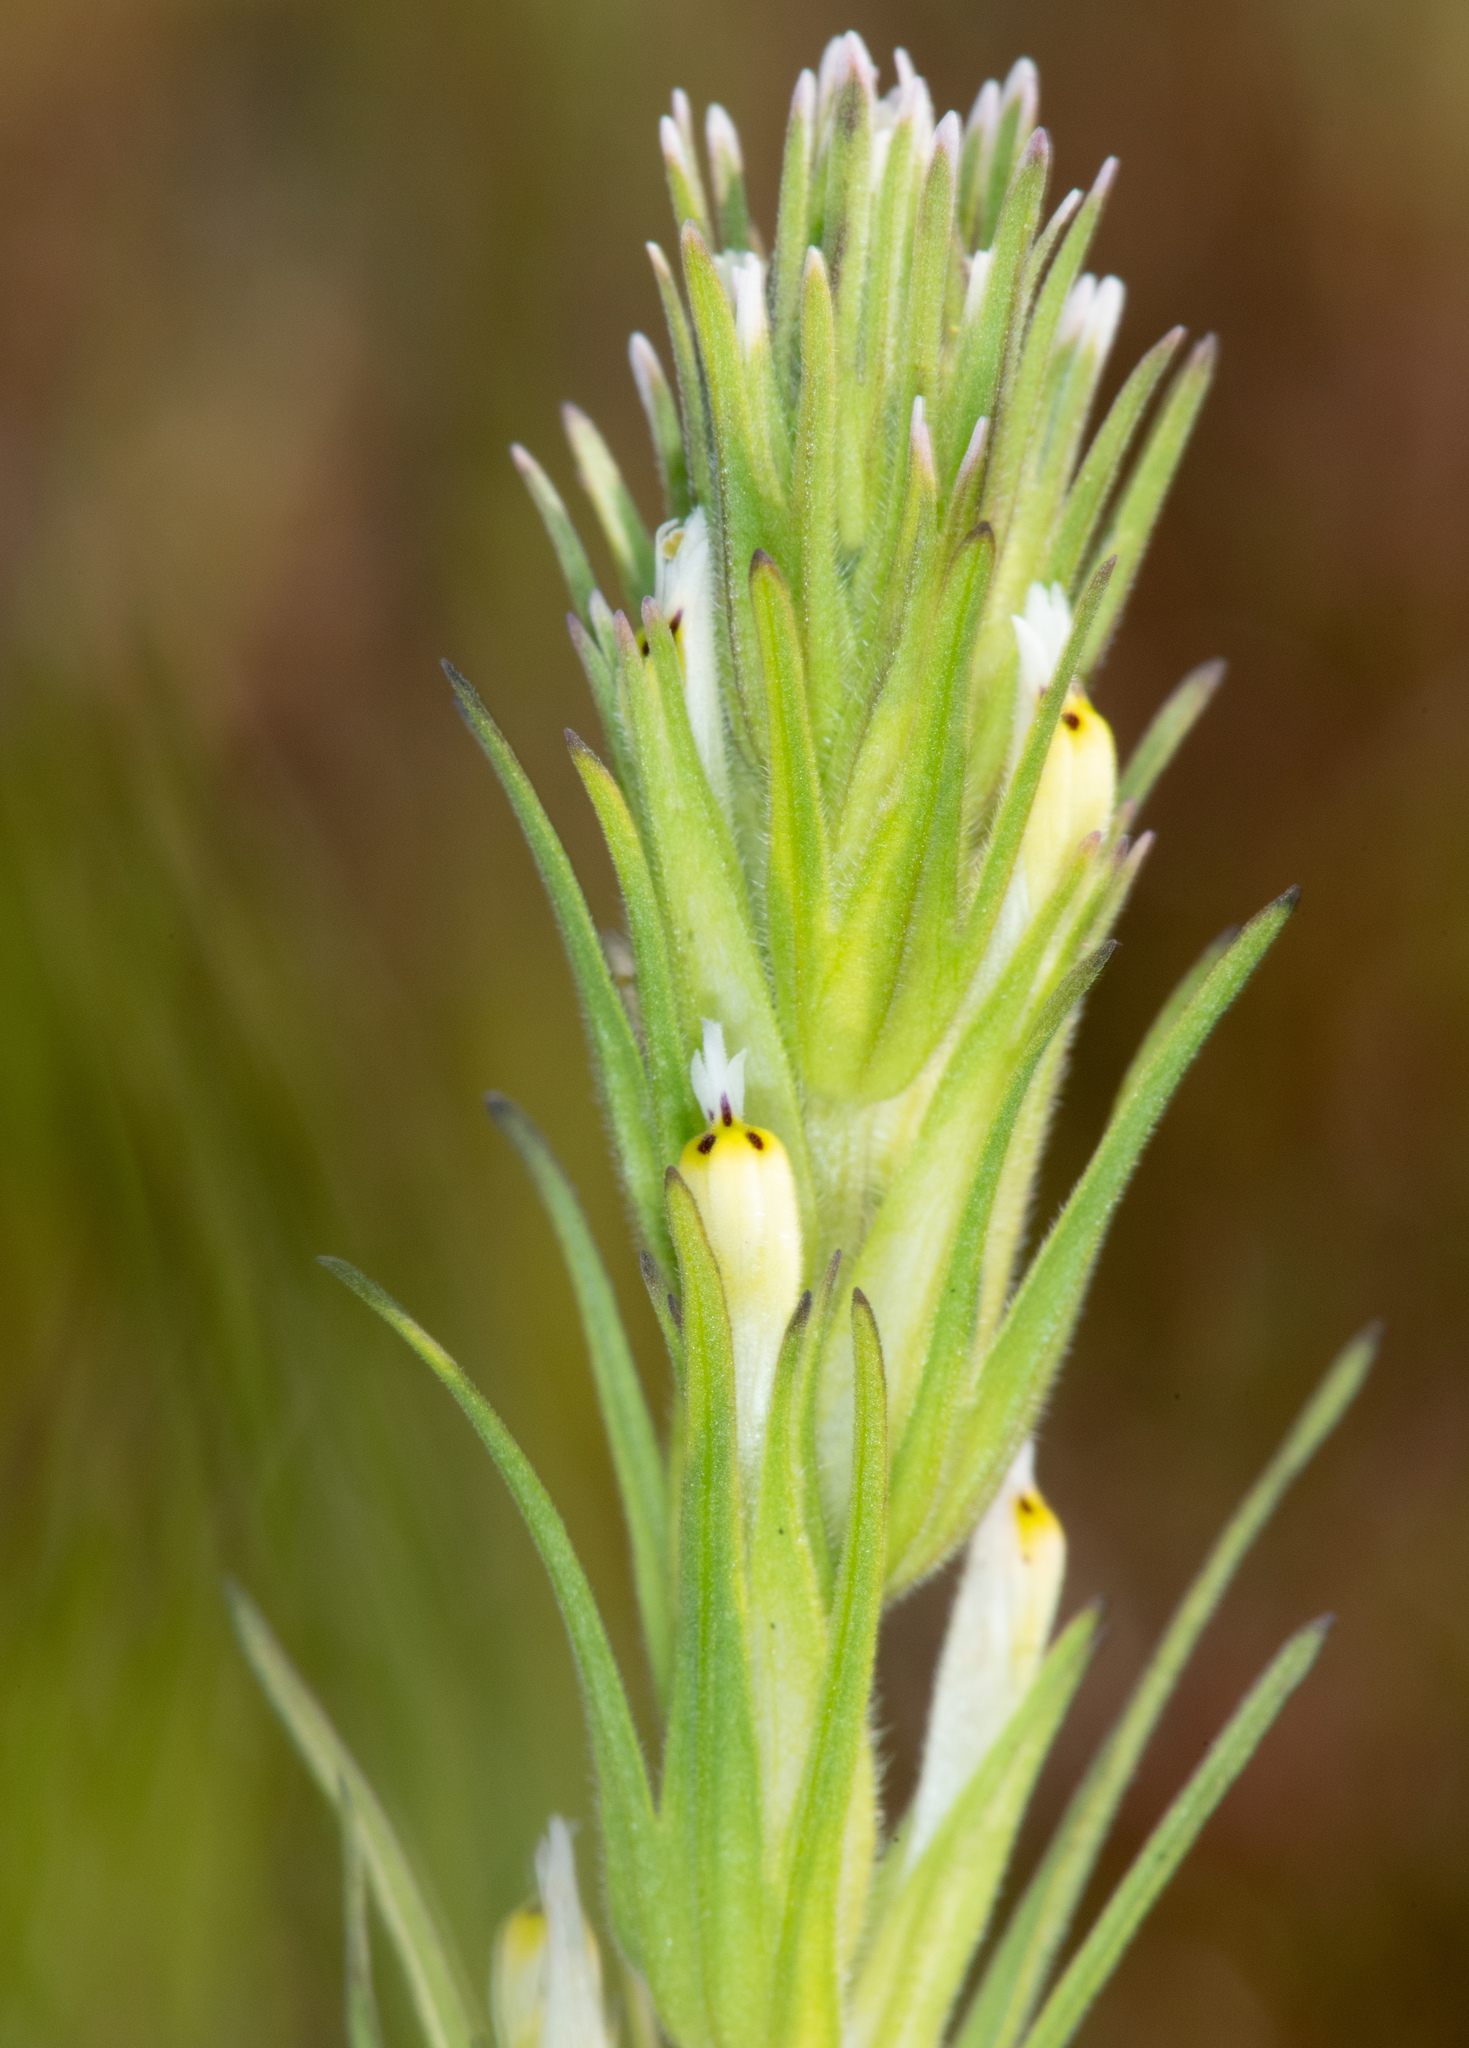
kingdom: Plantae
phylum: Tracheophyta
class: Magnoliopsida
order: Lamiales
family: Orobanchaceae
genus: Castilleja
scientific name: Castilleja attenuata
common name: Valley tassels
